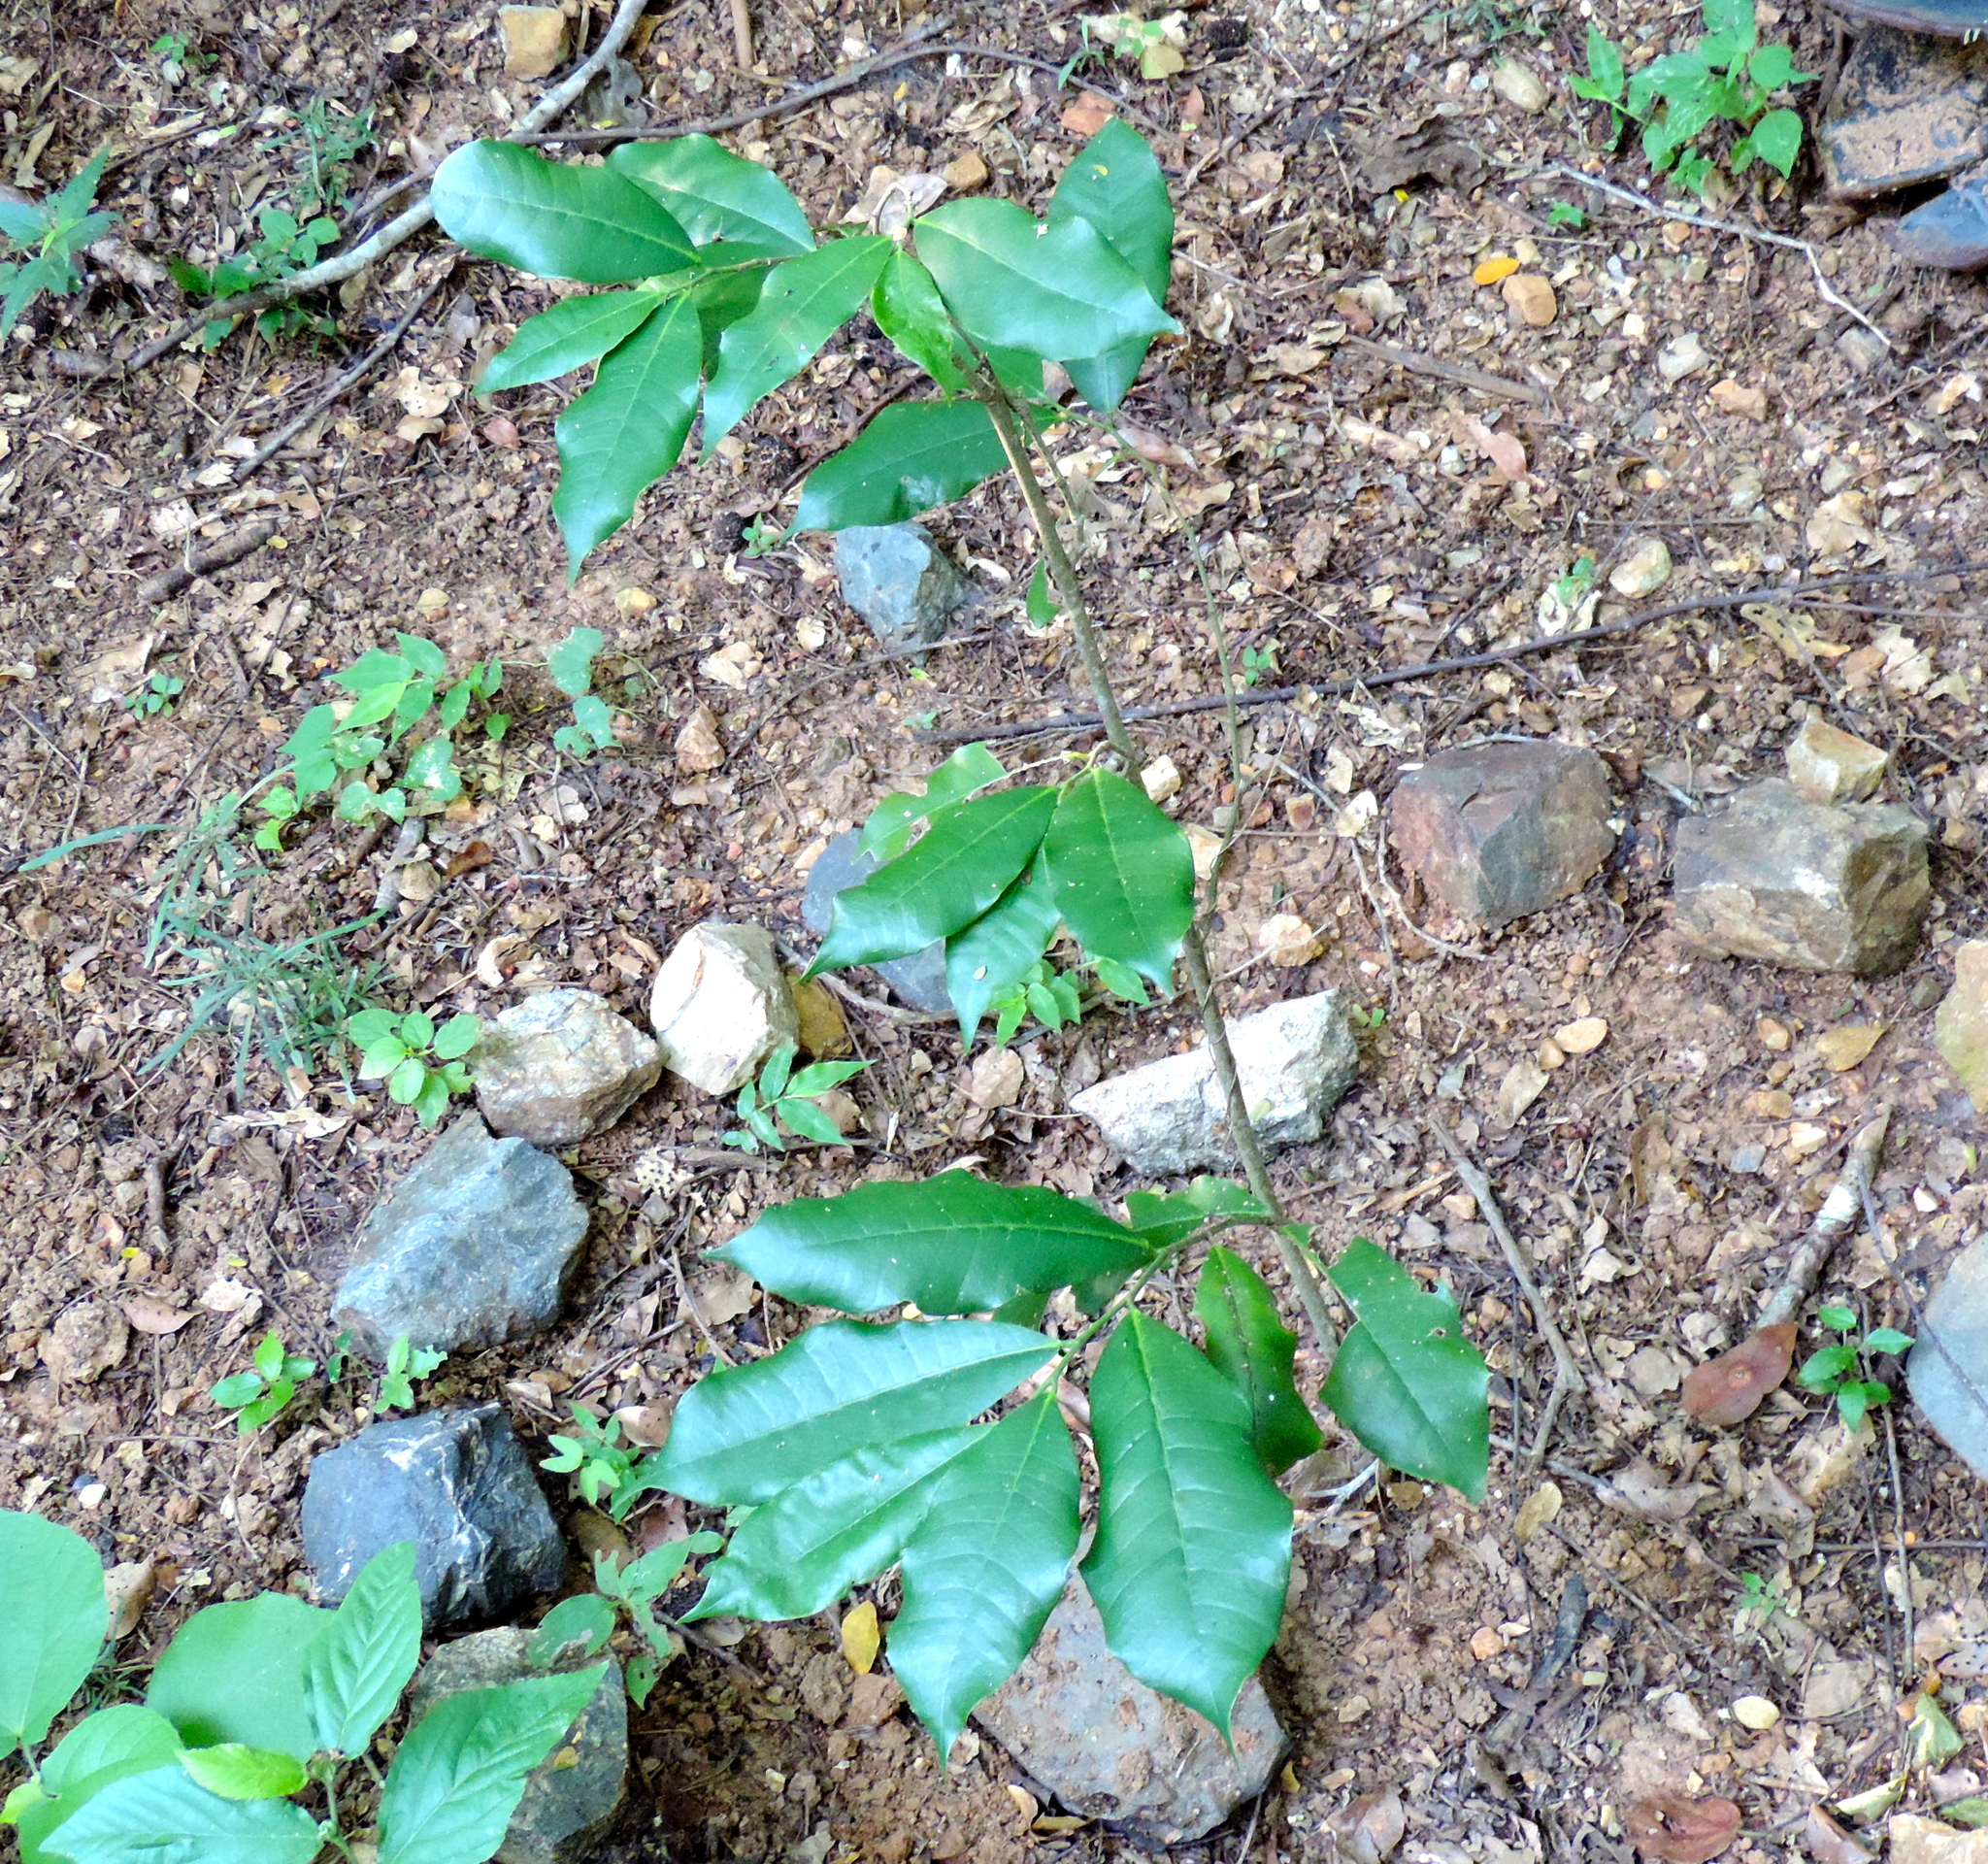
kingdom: Plantae
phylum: Tracheophyta
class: Magnoliopsida
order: Rosales
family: Moraceae
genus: Brosimum
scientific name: Brosimum alicastrum
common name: Breadnut
